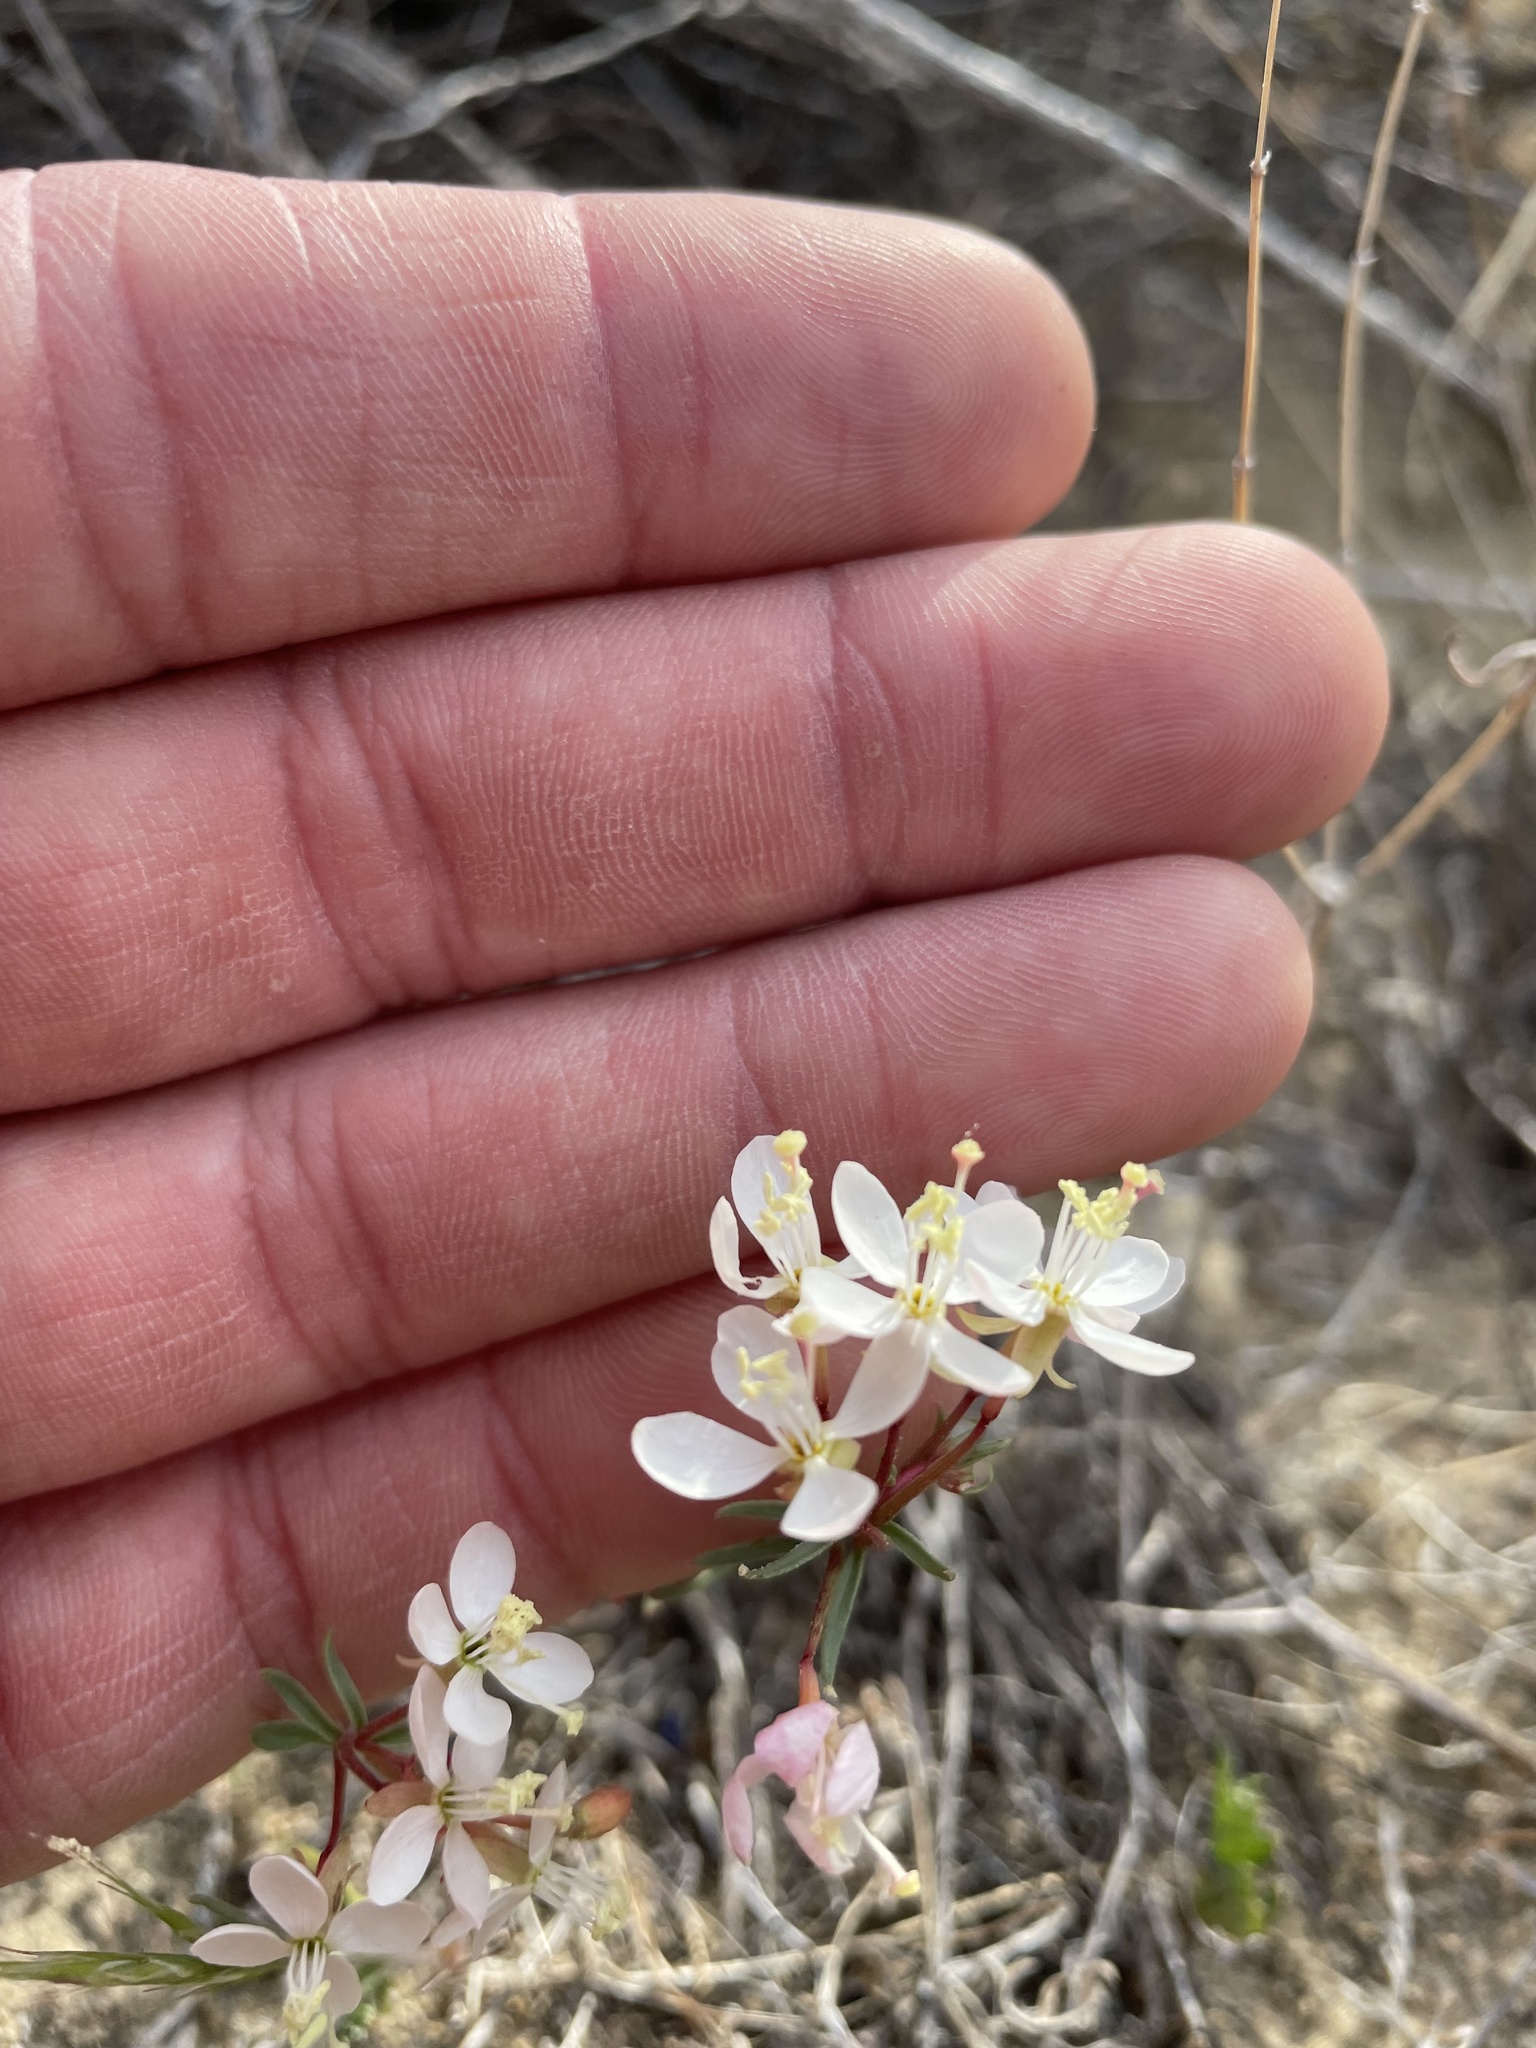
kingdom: Plantae
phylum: Tracheophyta
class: Magnoliopsida
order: Myrtales
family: Onagraceae
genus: Eremothera
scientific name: Eremothera boothii
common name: Booth's evening primrose
